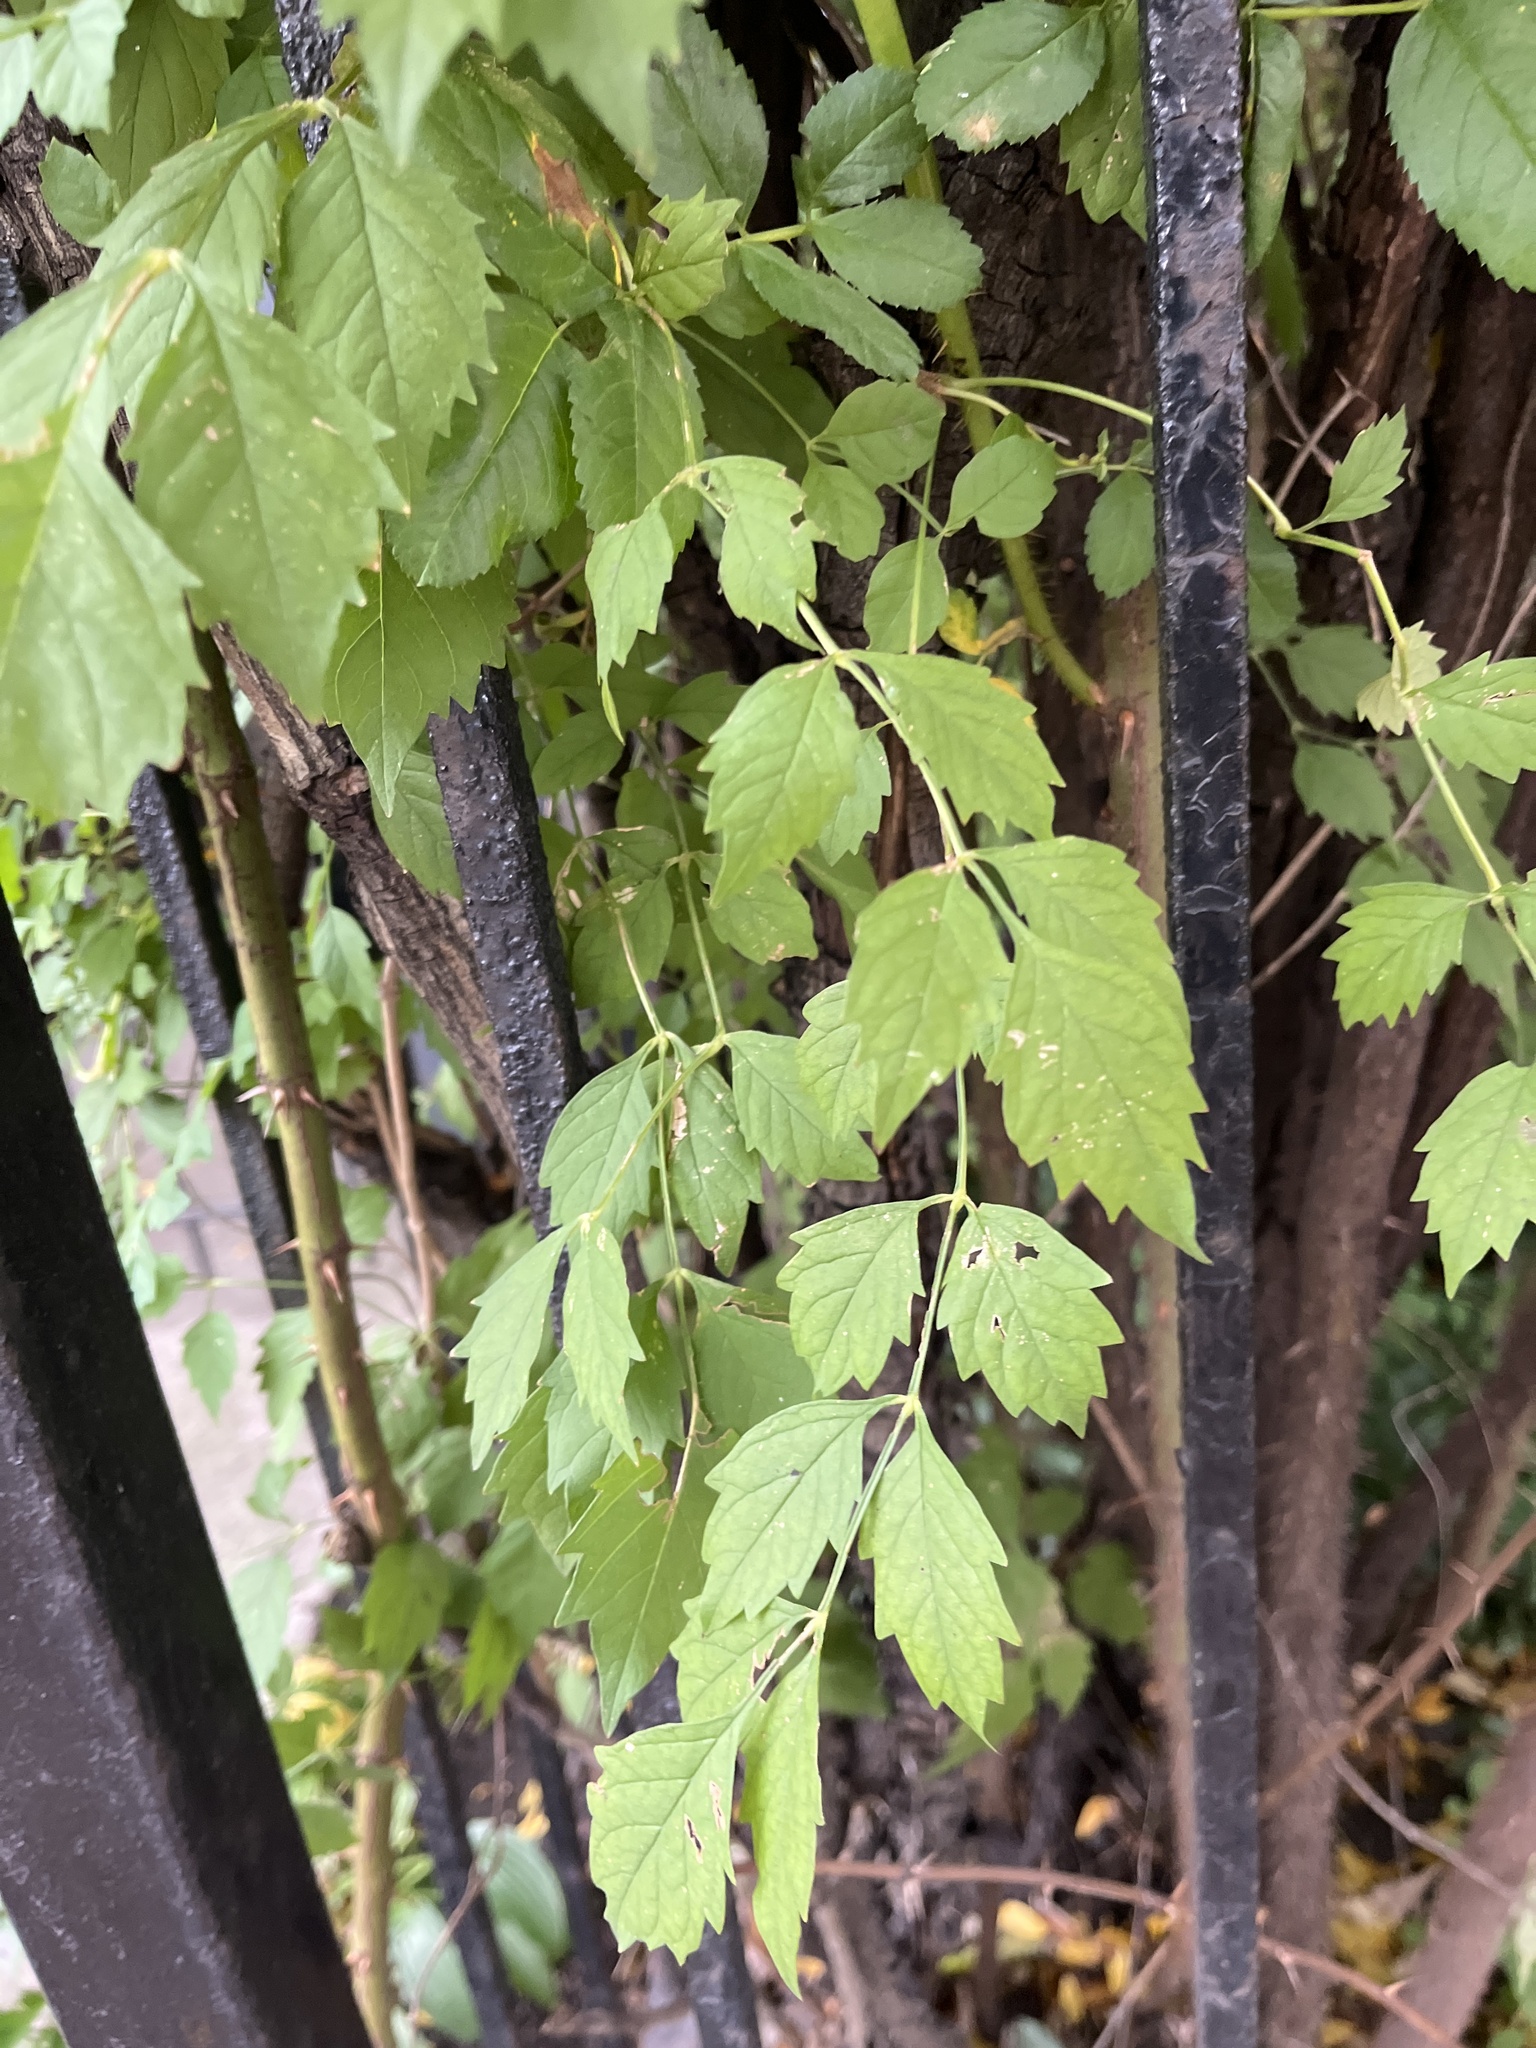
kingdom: Plantae
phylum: Tracheophyta
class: Magnoliopsida
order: Lamiales
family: Bignoniaceae
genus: Campsis
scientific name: Campsis radicans
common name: Trumpet-creeper
